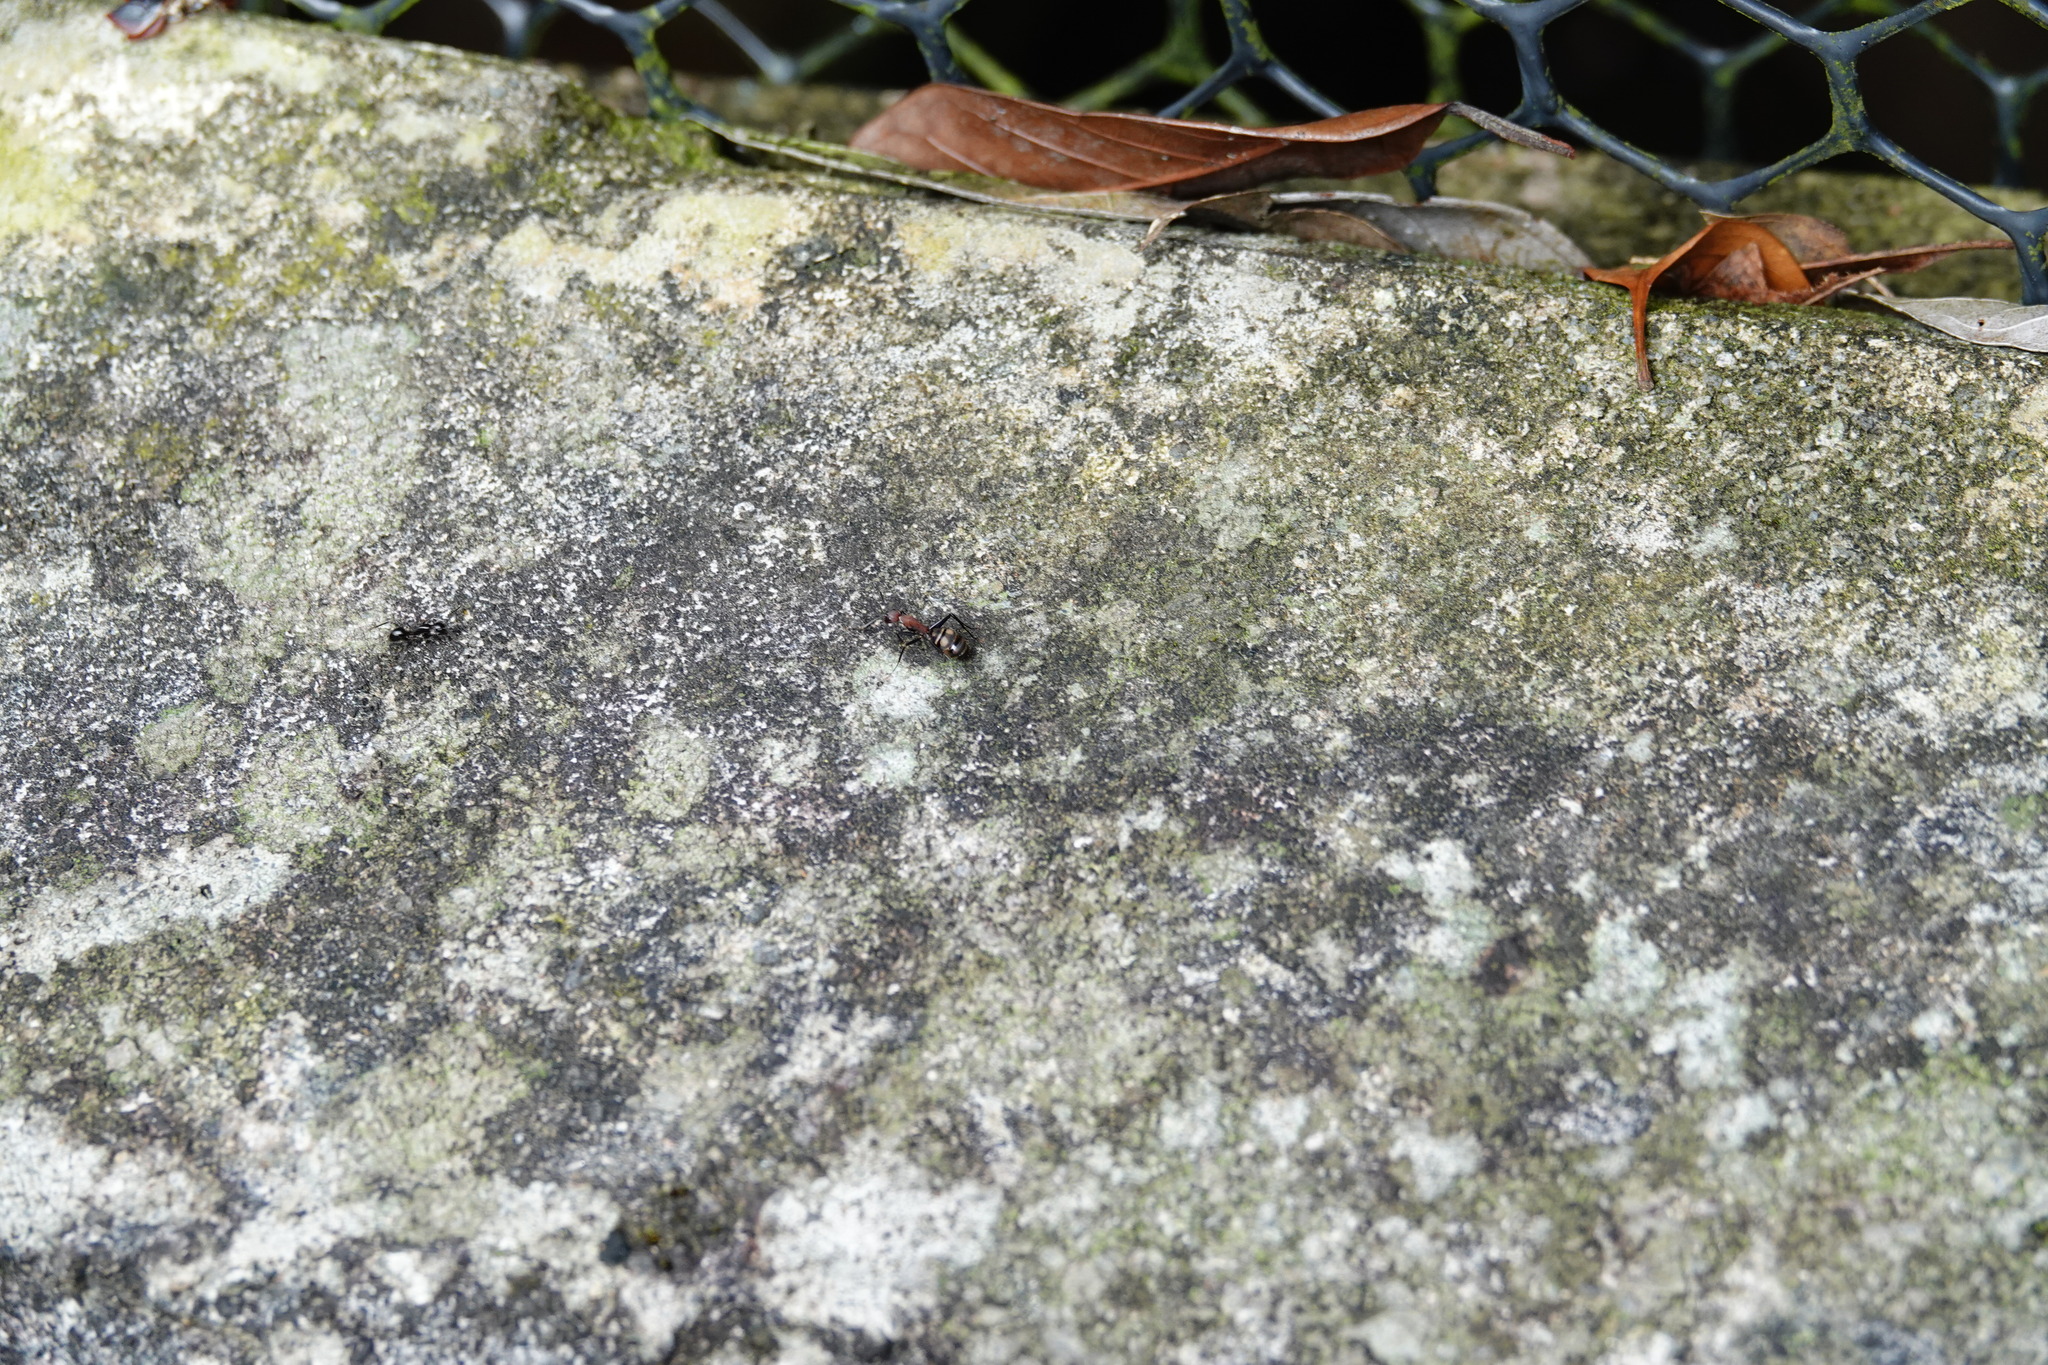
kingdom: Animalia
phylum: Arthropoda
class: Insecta
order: Hymenoptera
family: Formicidae
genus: Camponotus
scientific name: Camponotus habereri
